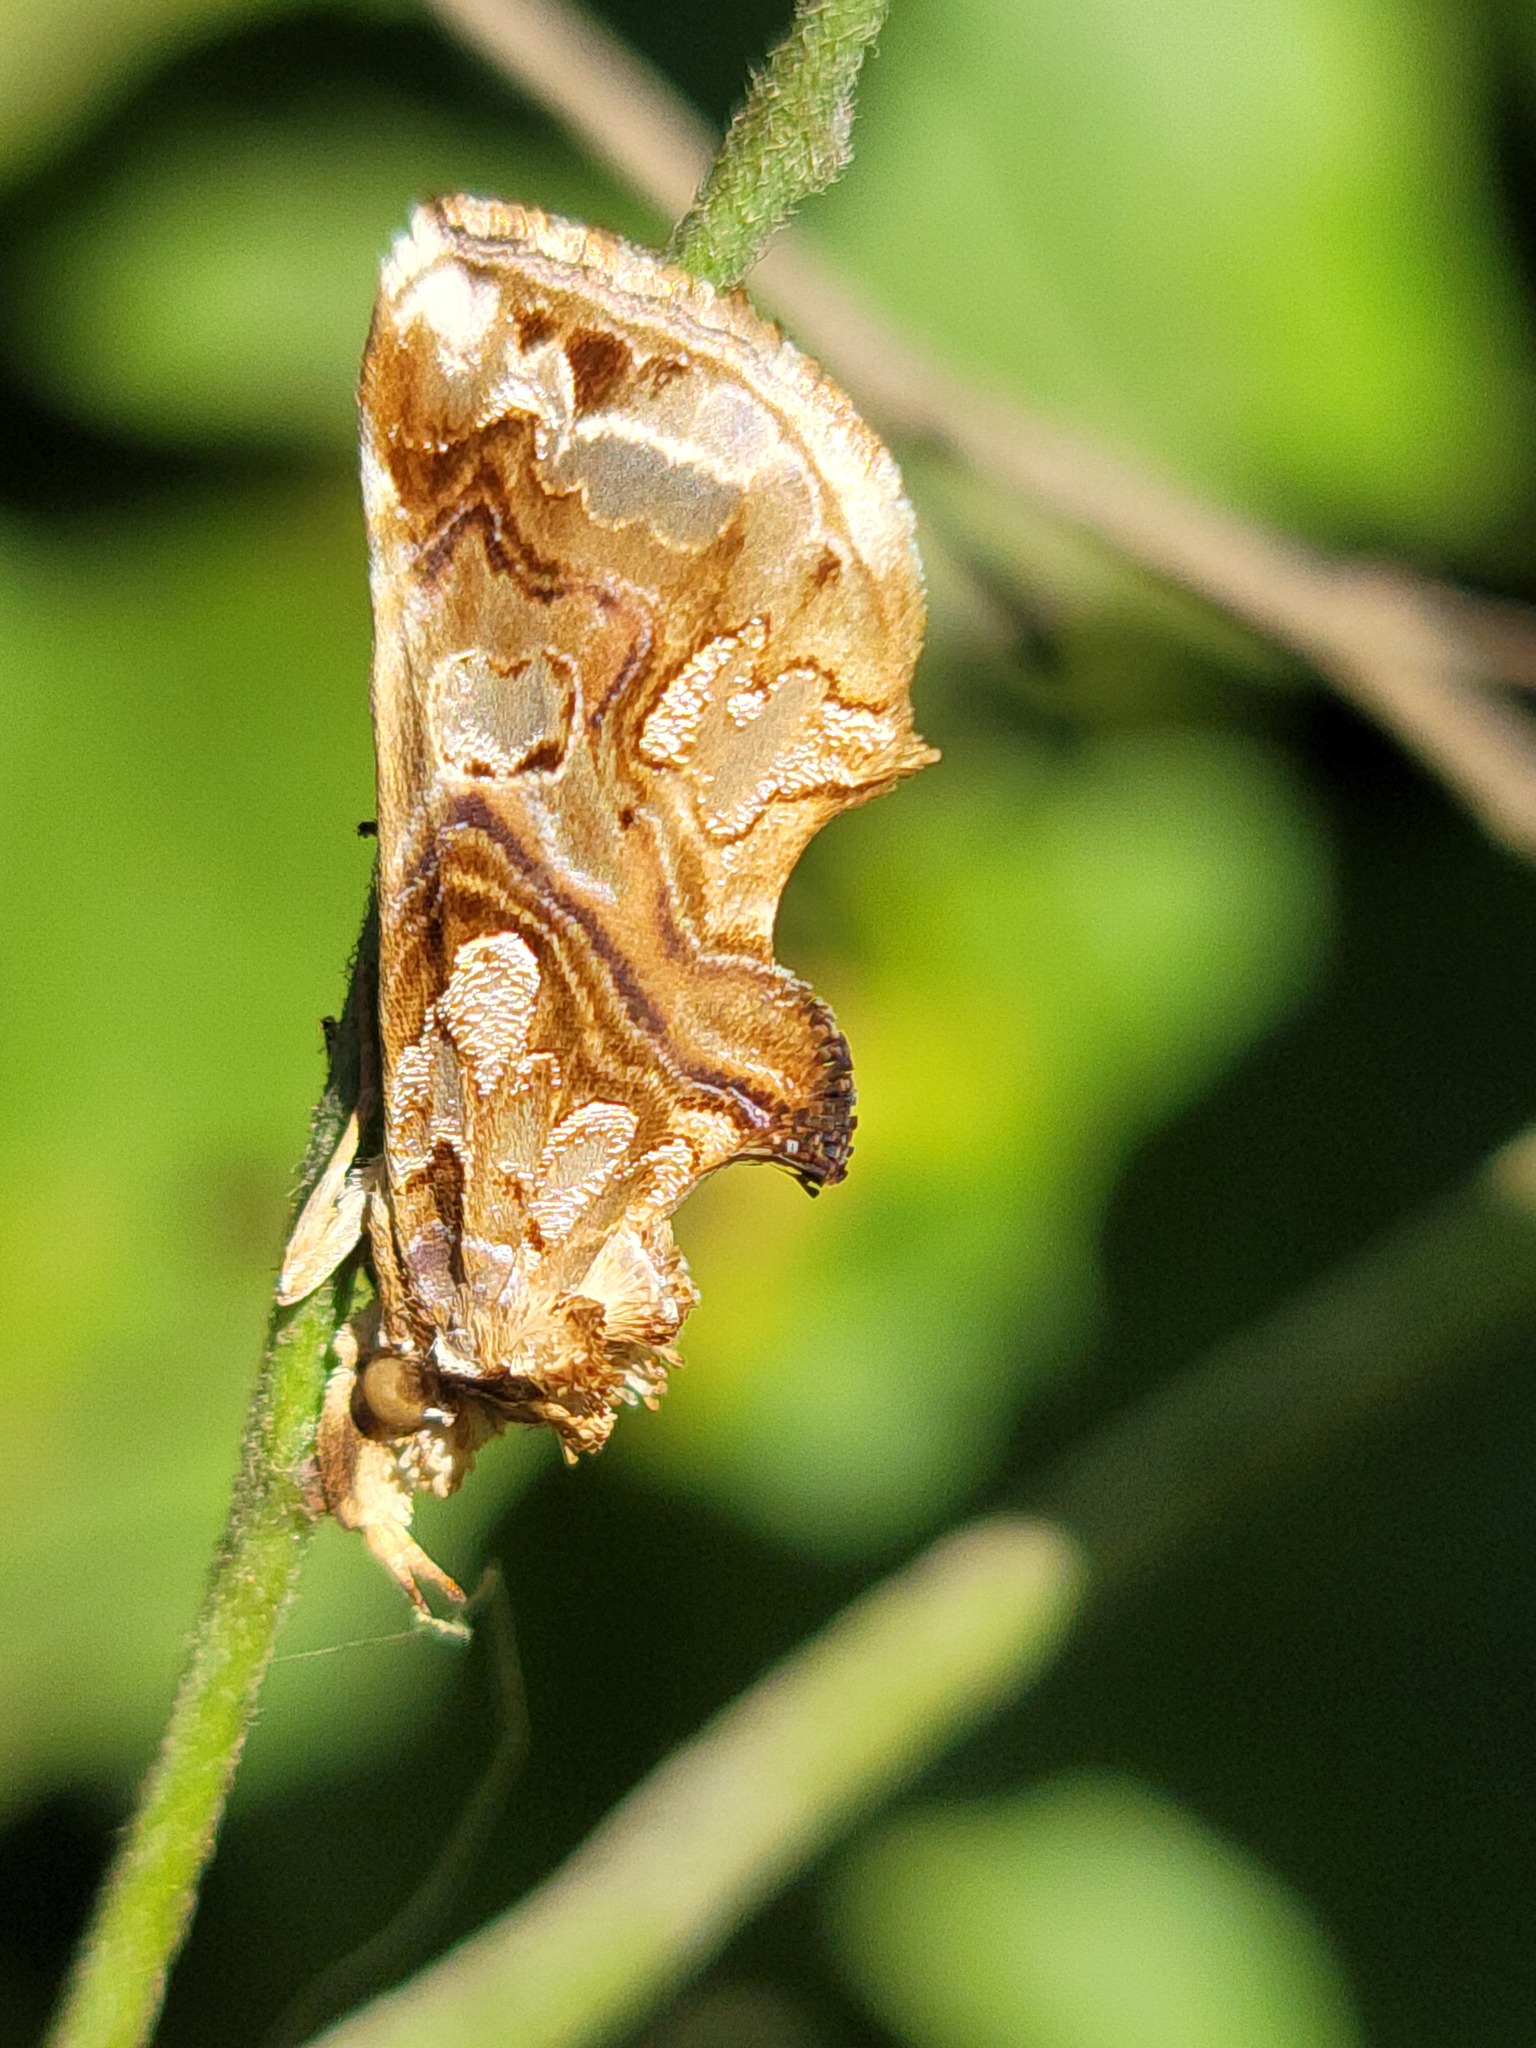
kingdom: Animalia
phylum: Arthropoda
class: Insecta
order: Lepidoptera
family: Erebidae
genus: Plusiodonta
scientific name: Plusiodonta compressipalpis
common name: Moonseed moth
